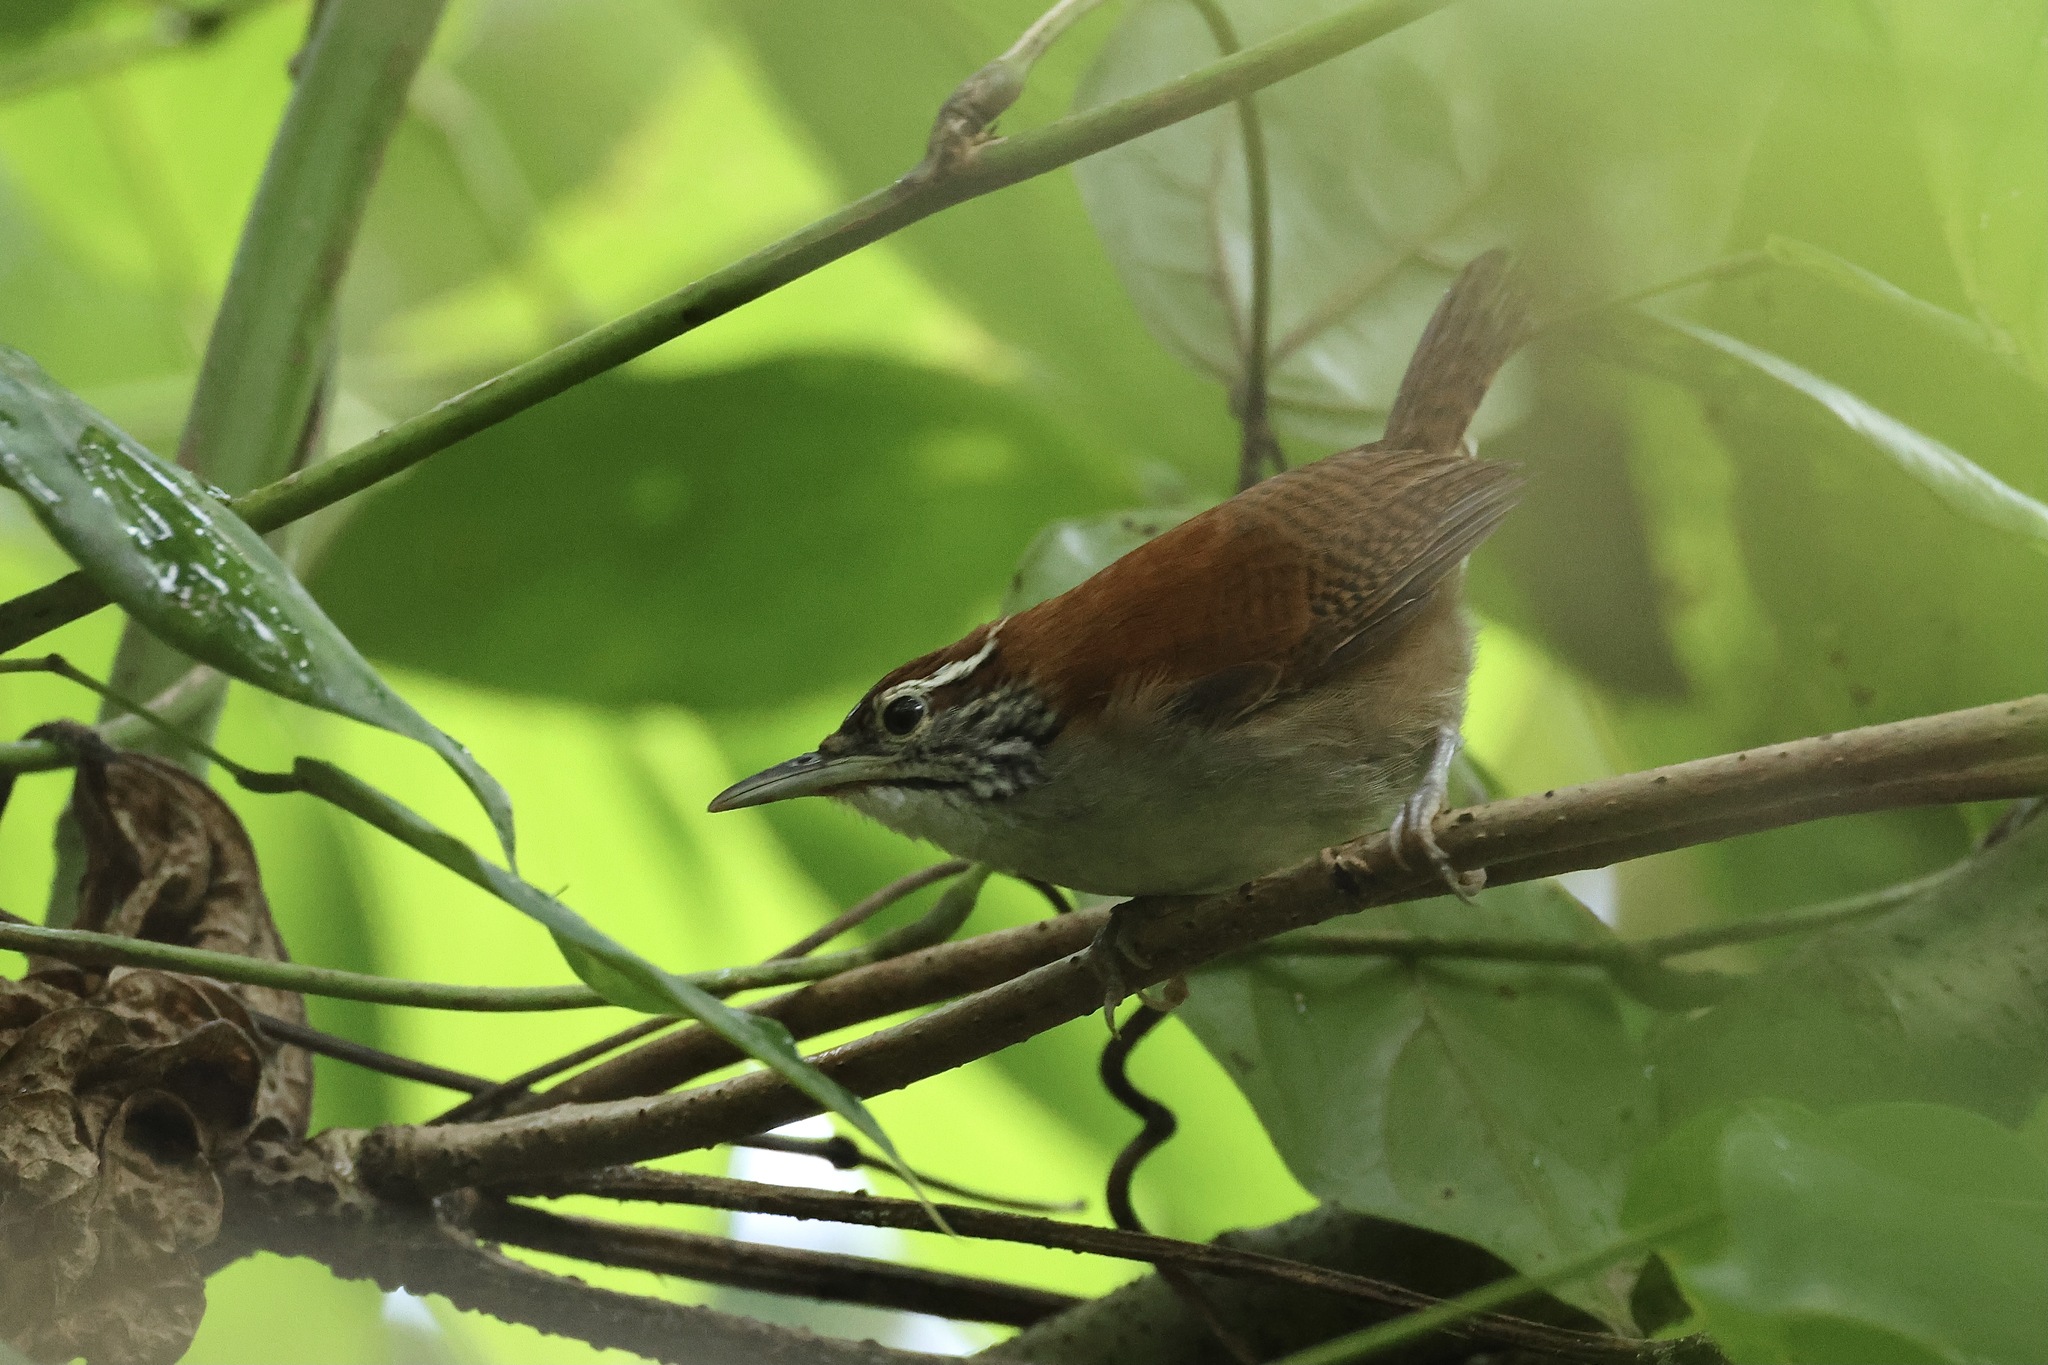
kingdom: Animalia
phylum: Chordata
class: Aves
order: Passeriformes
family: Troglodytidae
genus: Thryophilus
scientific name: Thryophilus rufalbus
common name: Rufous-and-white wren
